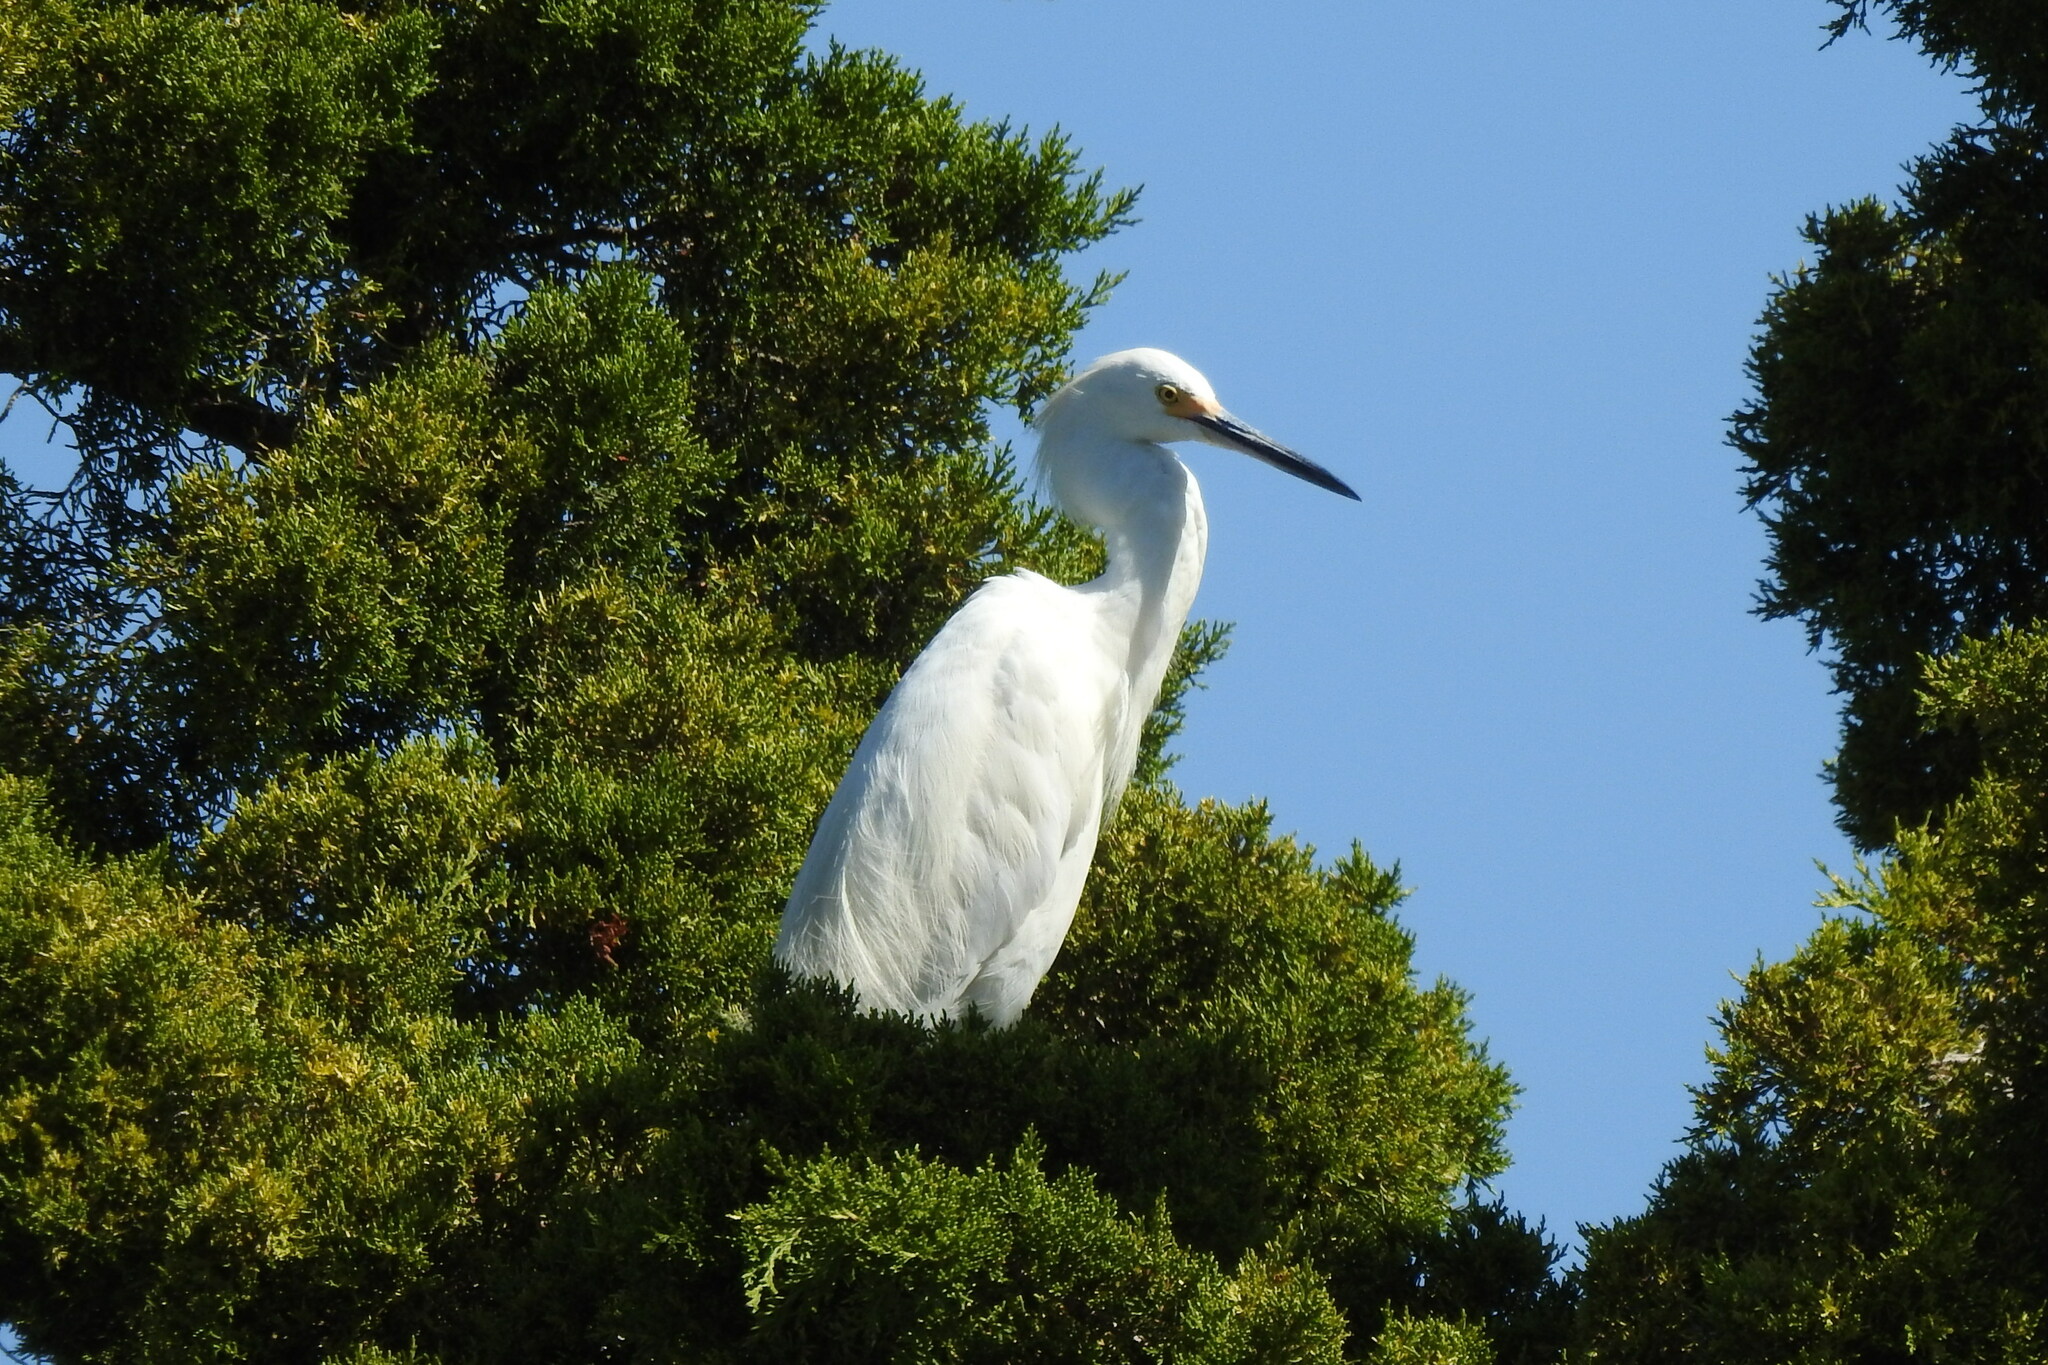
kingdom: Animalia
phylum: Chordata
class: Aves
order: Pelecaniformes
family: Ardeidae
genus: Egretta
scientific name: Egretta thula
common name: Snowy egret
